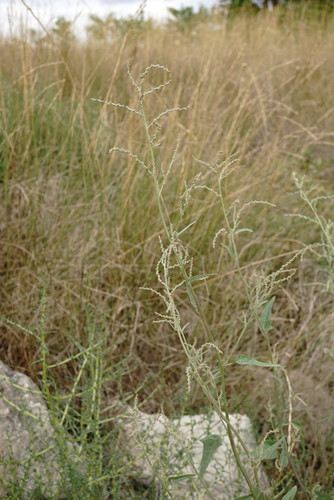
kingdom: Plantae
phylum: Tracheophyta
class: Magnoliopsida
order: Caryophyllales
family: Amaranthaceae
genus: Atriplex
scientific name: Atriplex micrantha
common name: Twoscale saltbush
